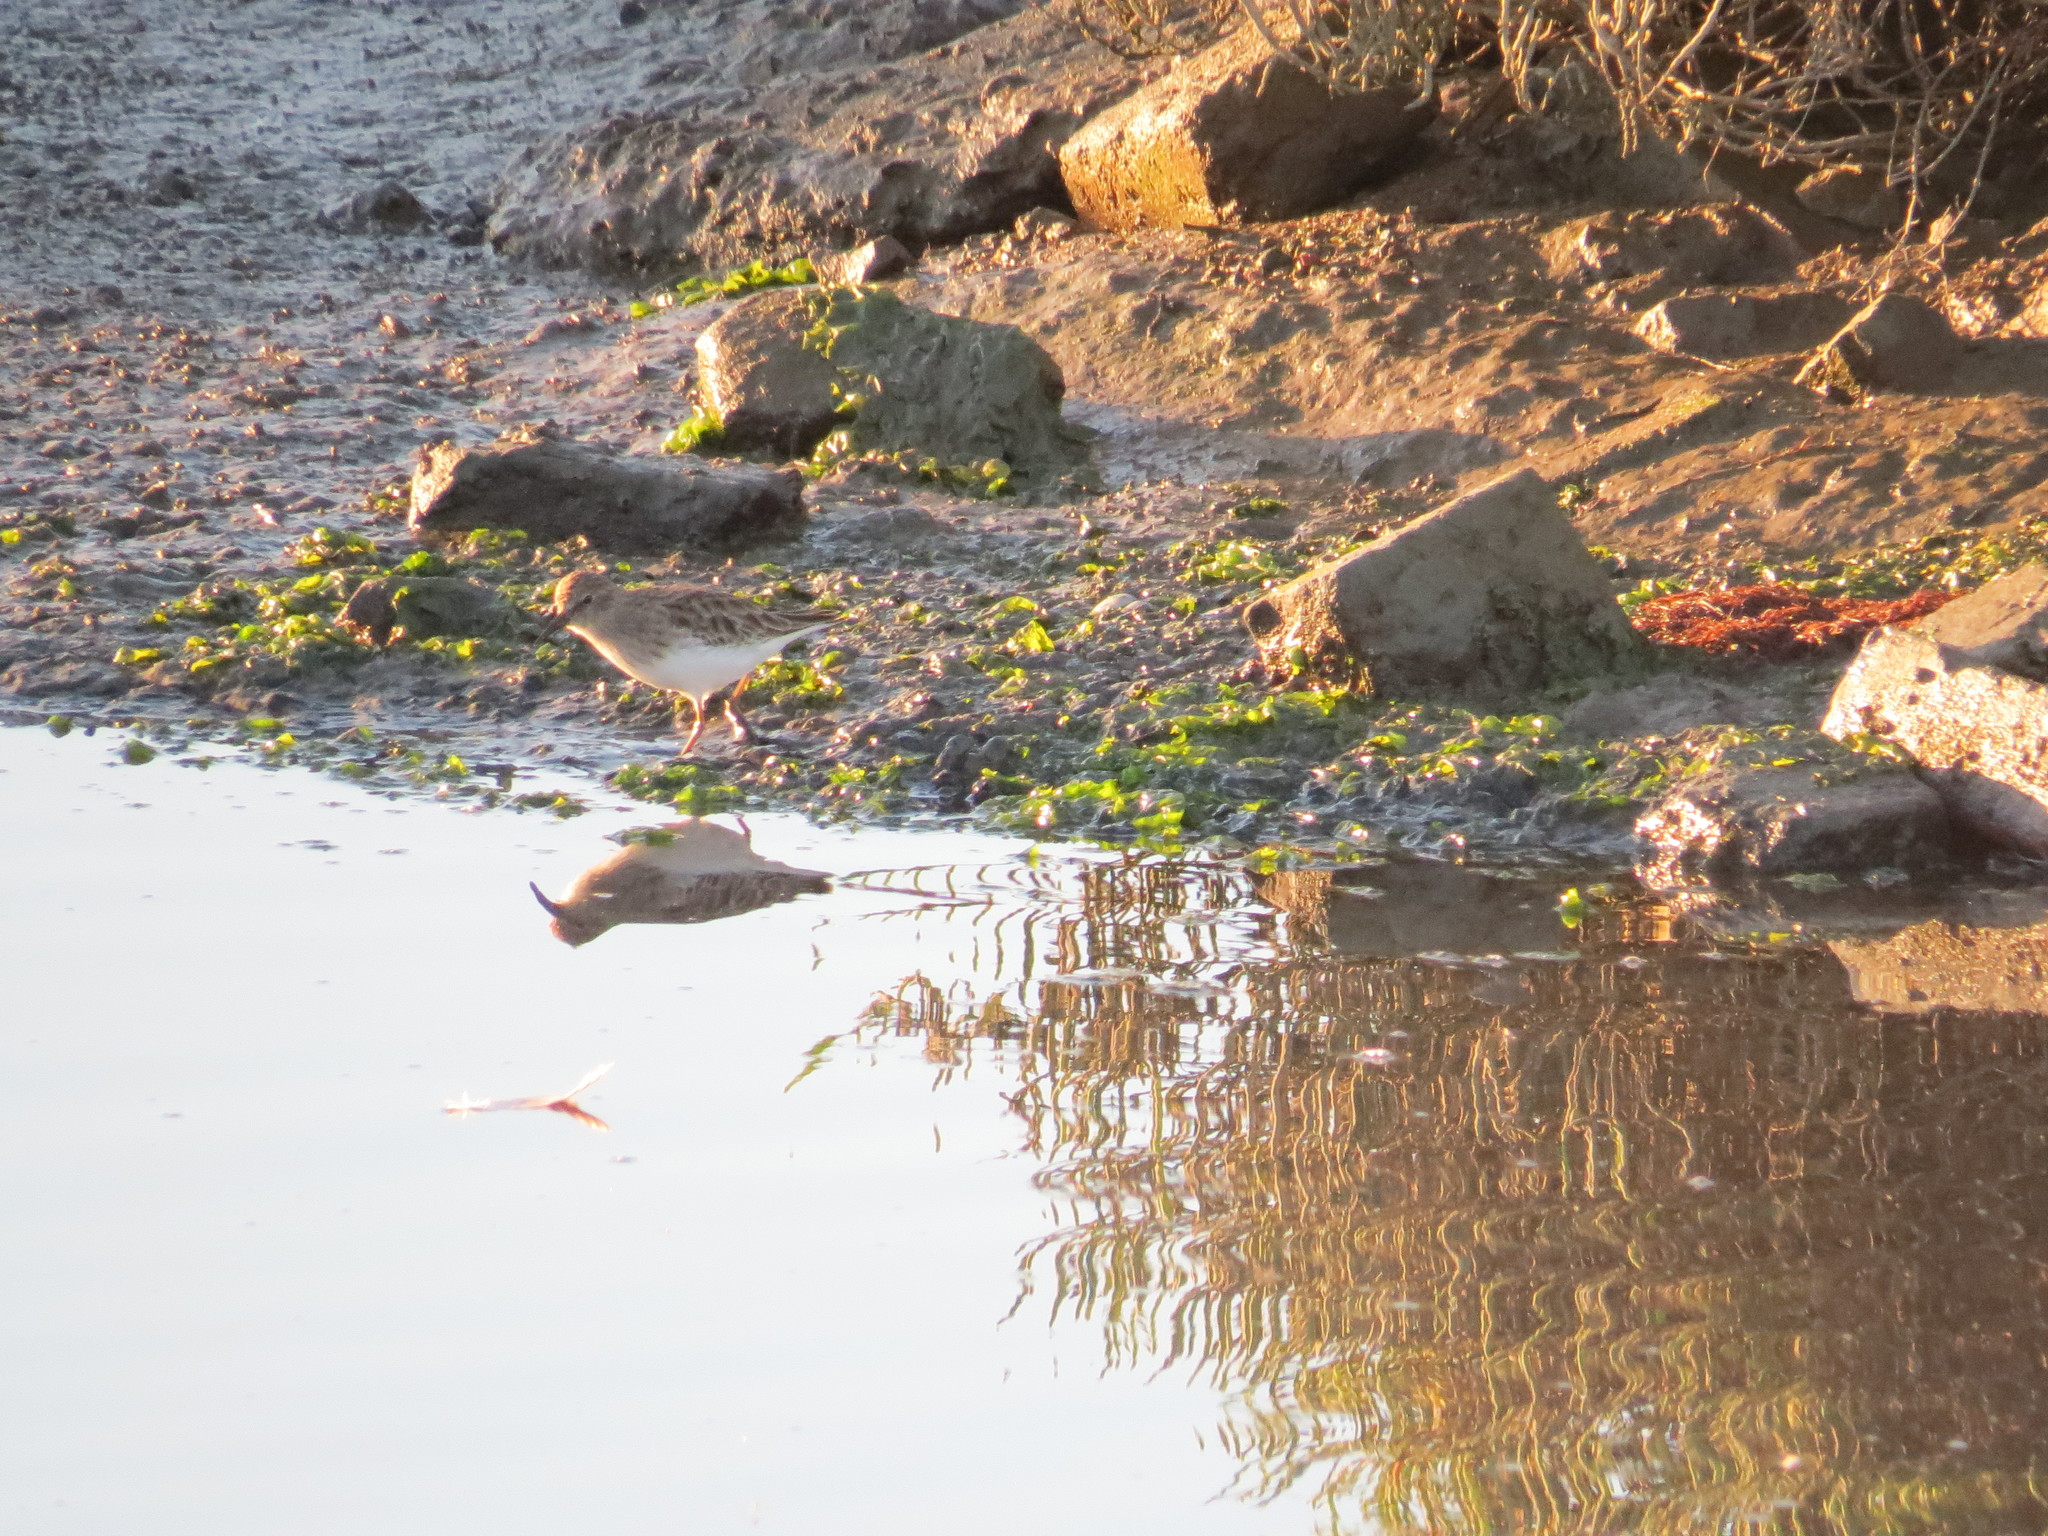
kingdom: Animalia
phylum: Chordata
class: Aves
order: Charadriiformes
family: Scolopacidae
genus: Calidris
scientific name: Calidris minutilla
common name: Least sandpiper
